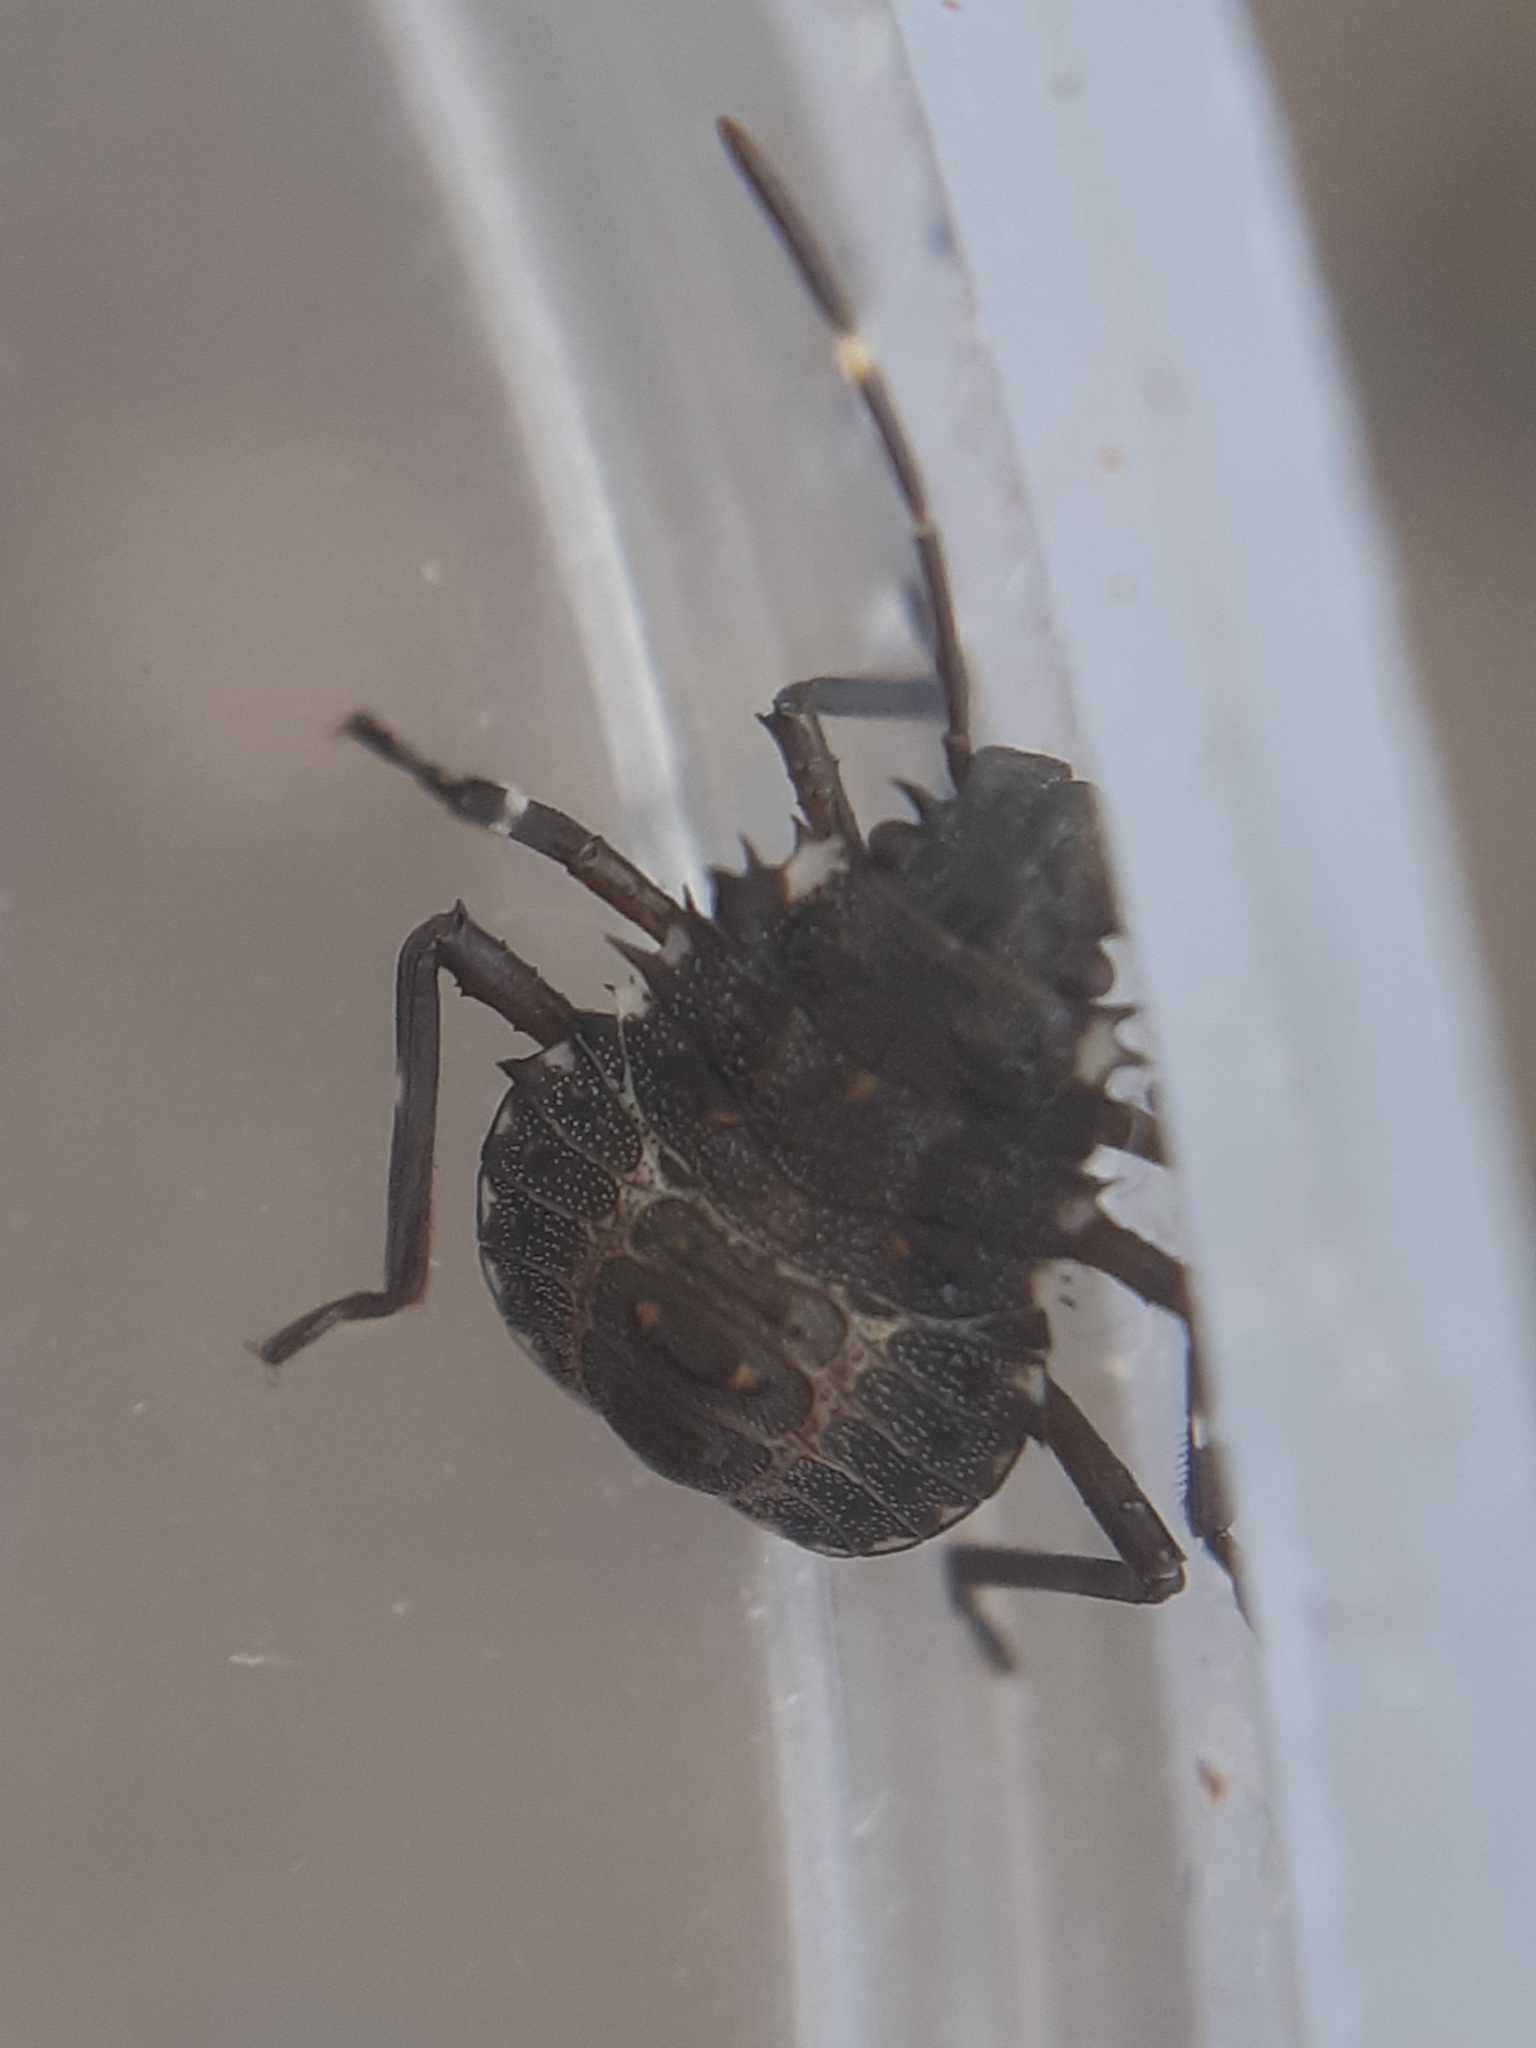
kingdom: Animalia
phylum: Arthropoda
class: Insecta
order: Hemiptera
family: Pentatomidae
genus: Halyomorpha
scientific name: Halyomorpha halys
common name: Brown marmorated stink bug
